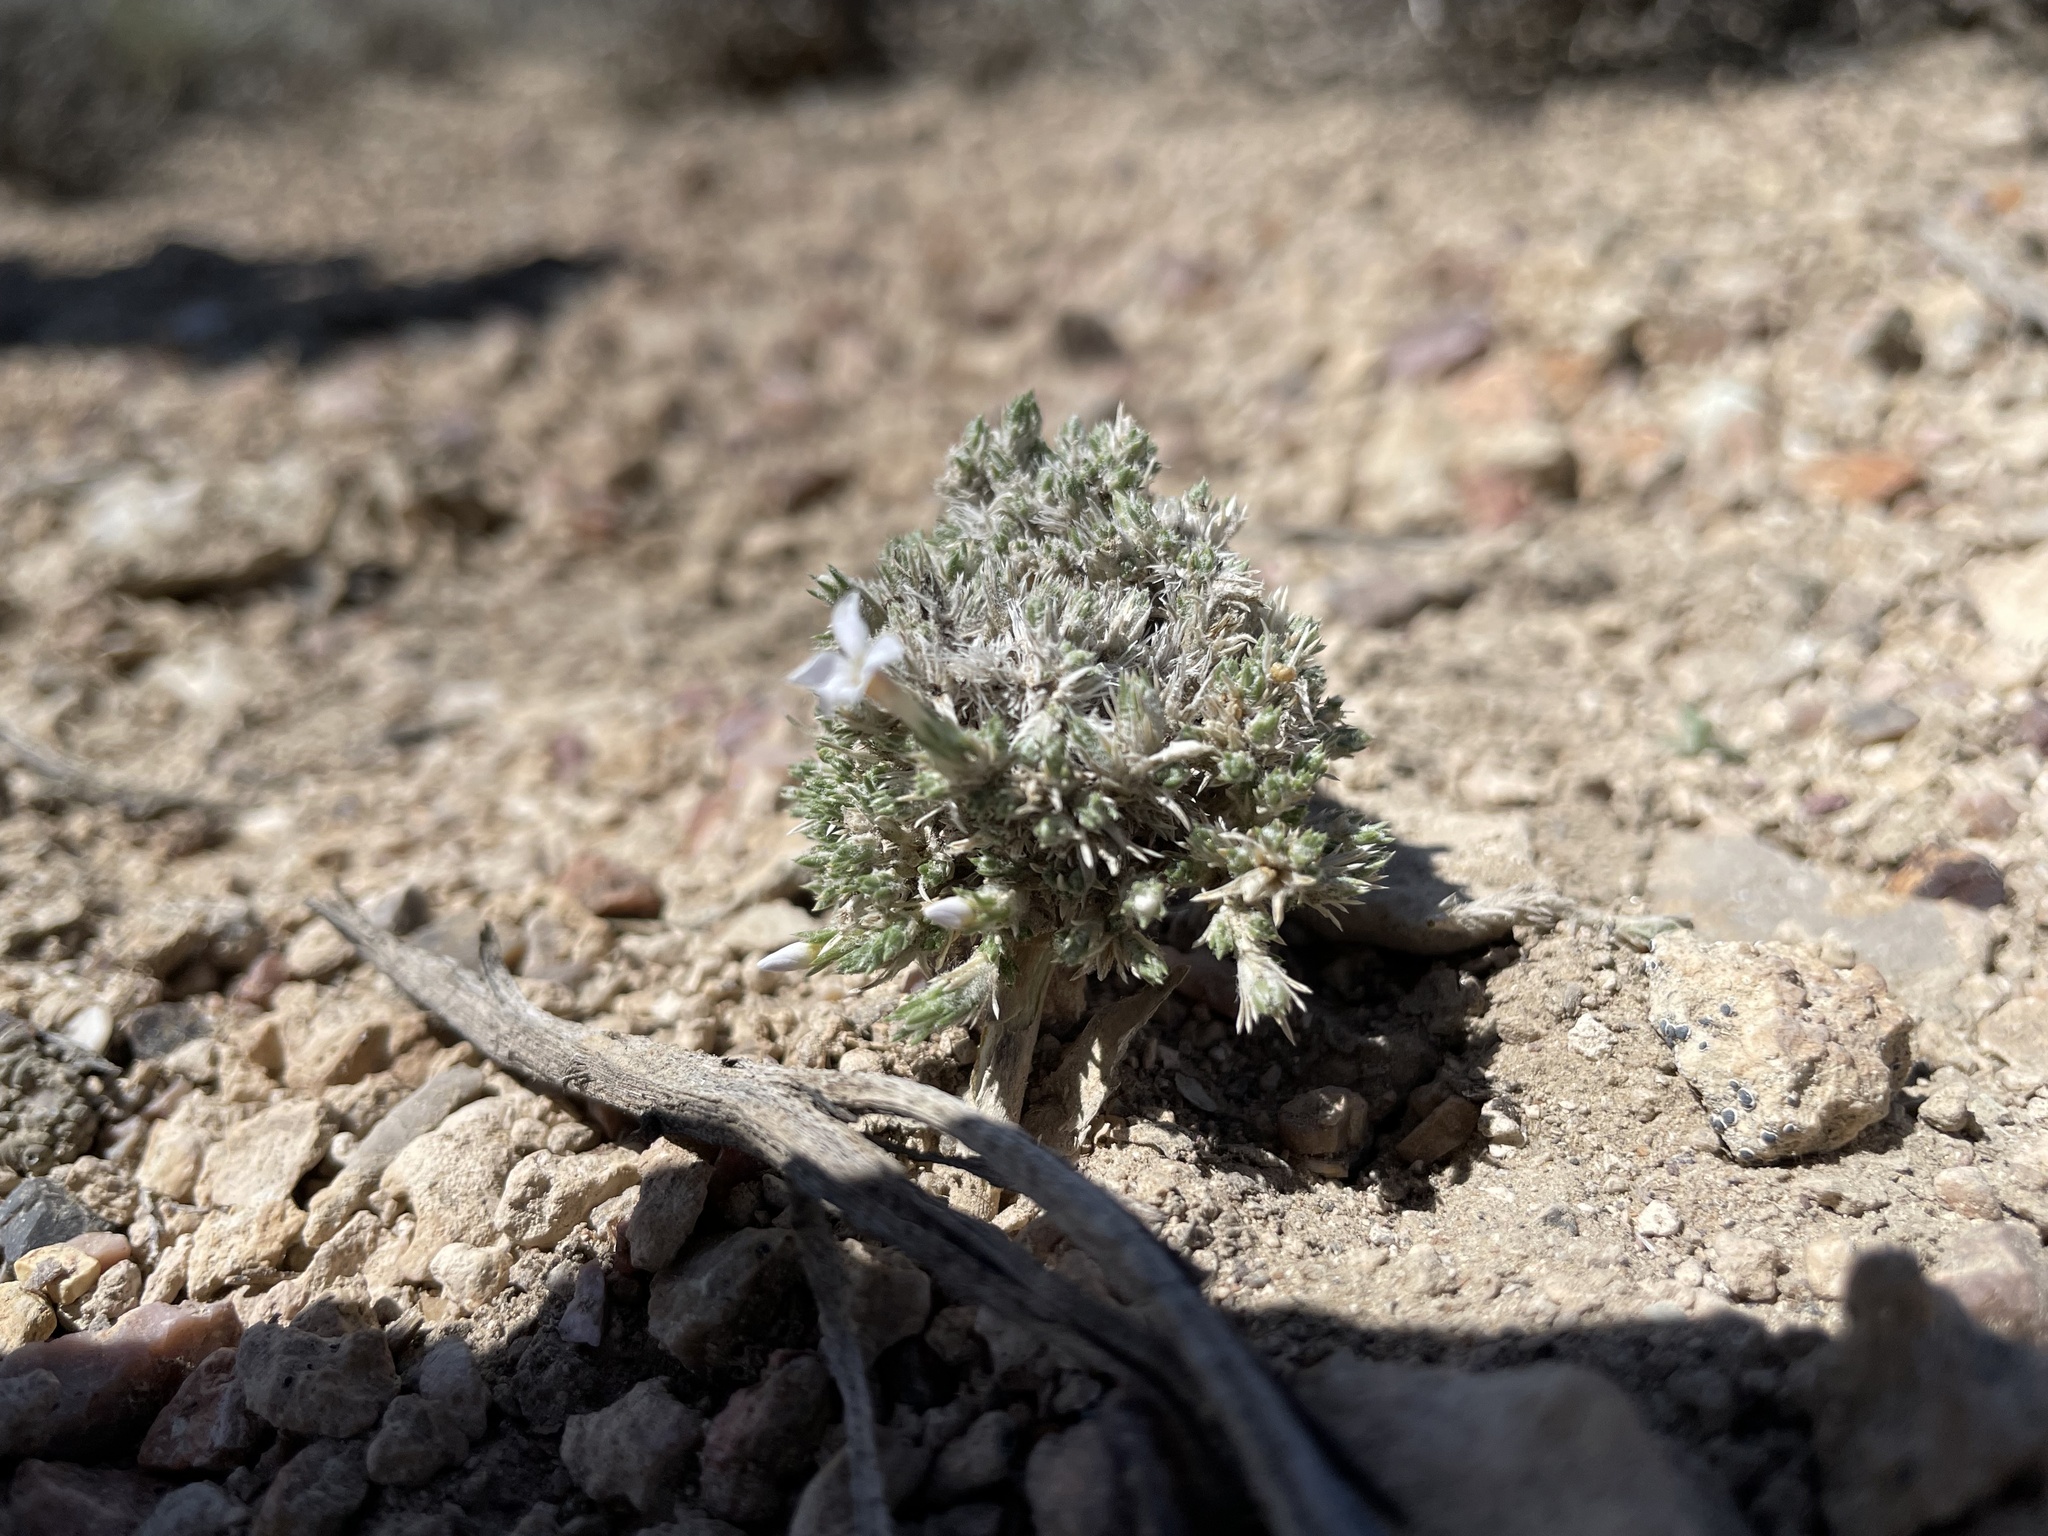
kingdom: Plantae
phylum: Tracheophyta
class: Magnoliopsida
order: Ericales
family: Polemoniaceae
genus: Phlox
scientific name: Phlox hoodii
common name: Moss phlox
